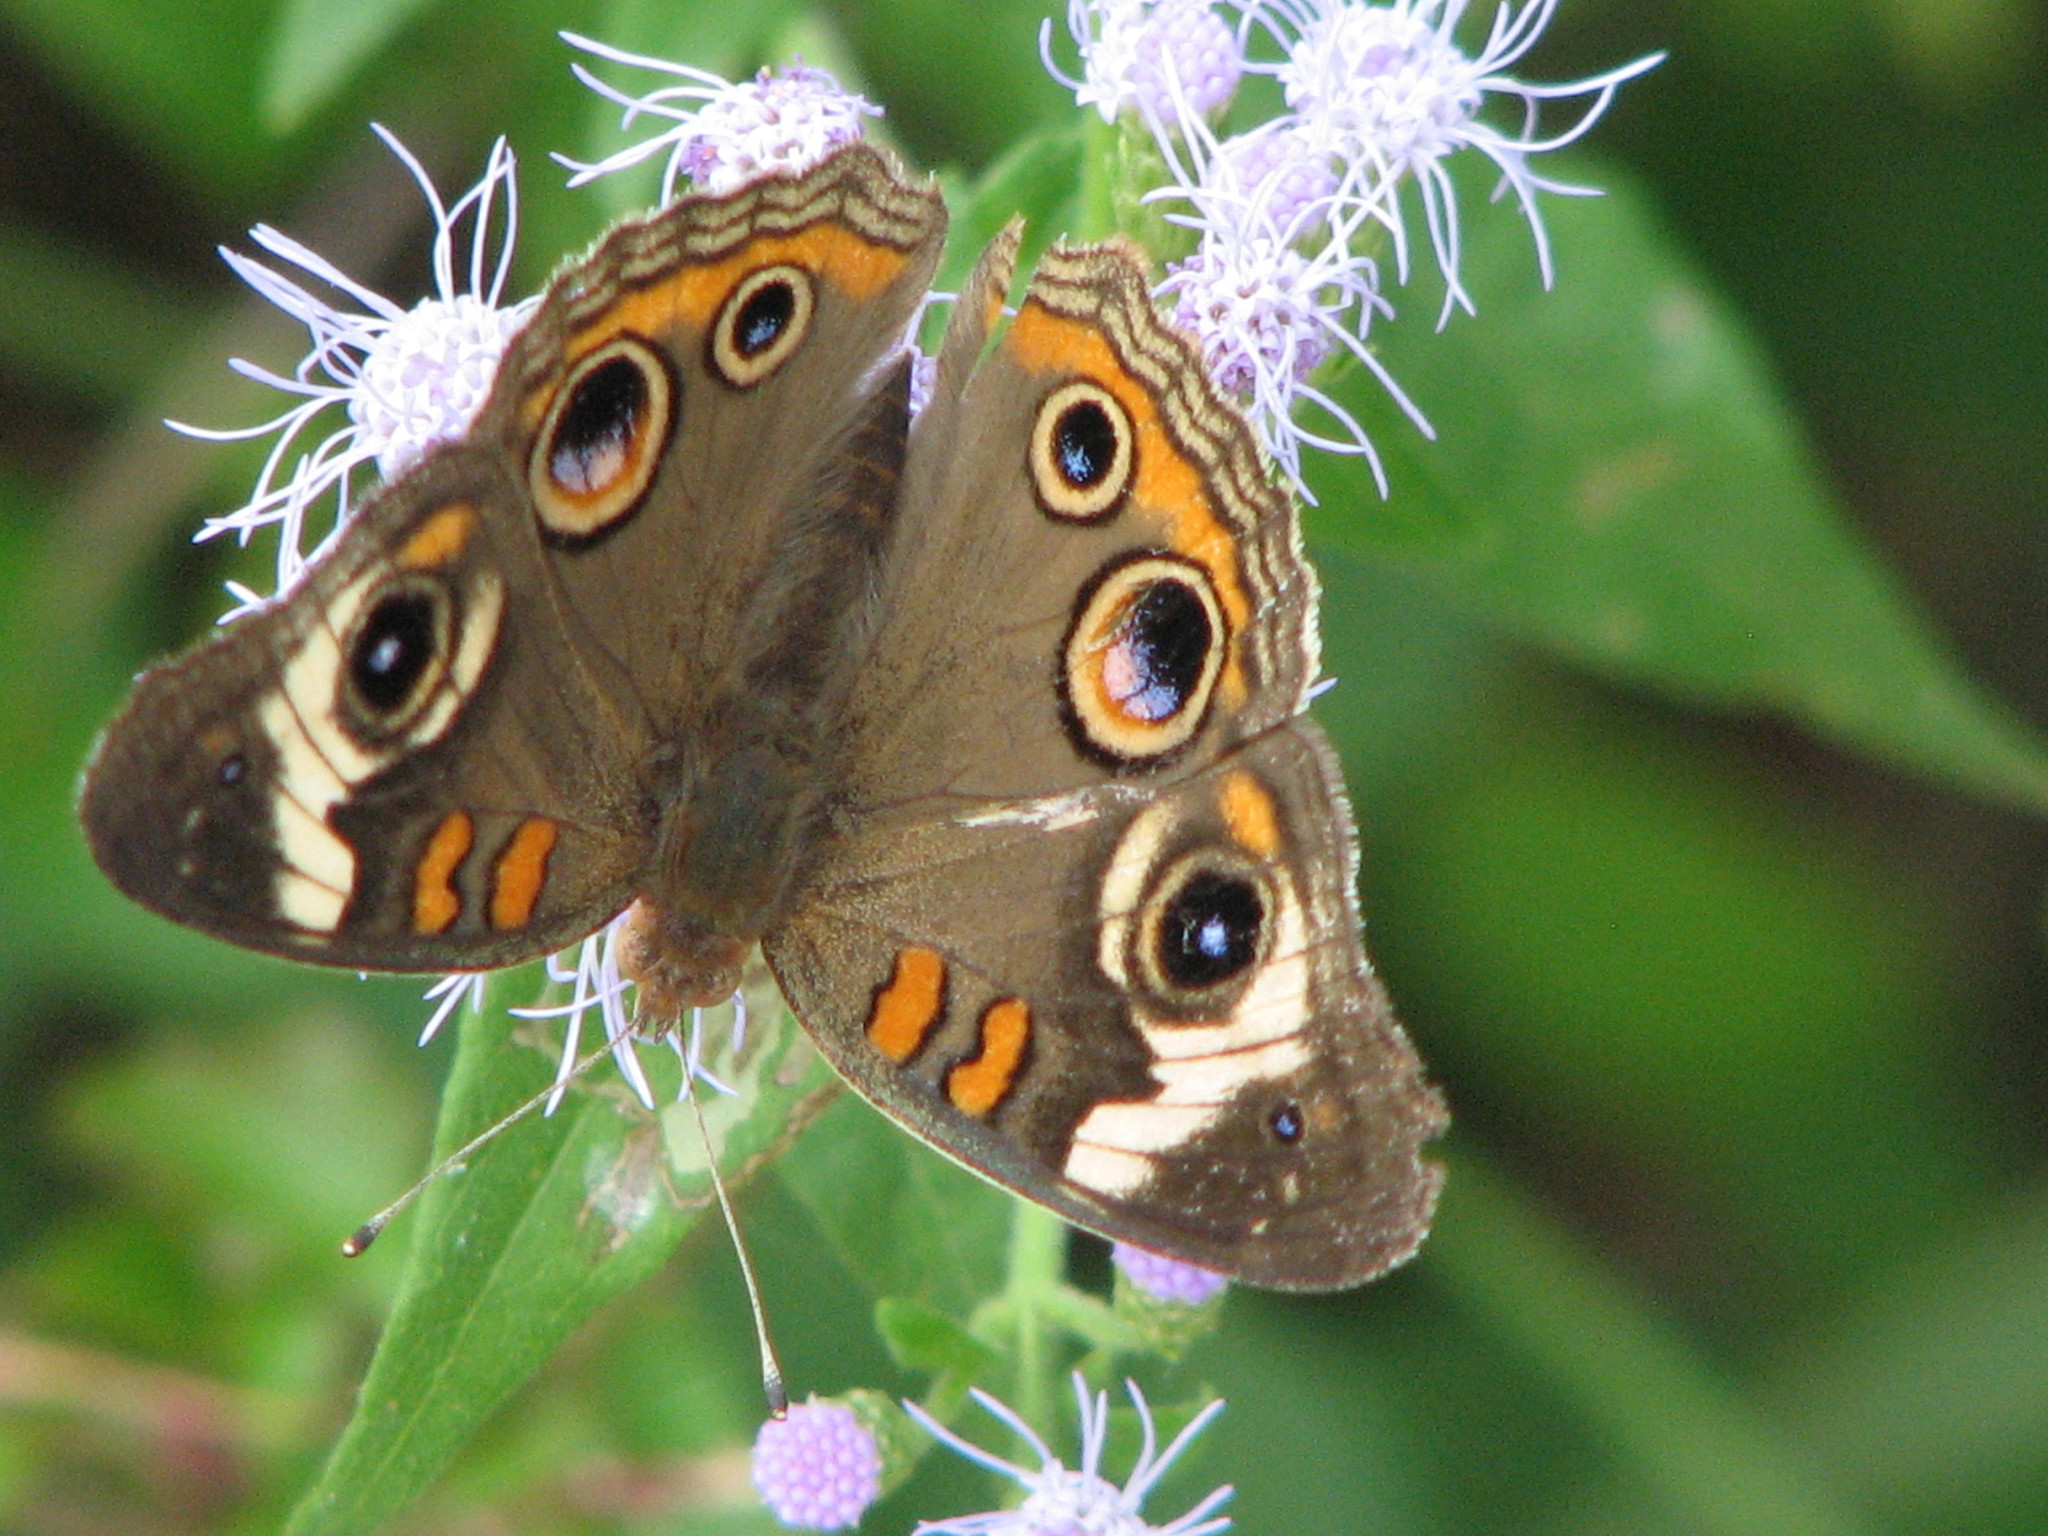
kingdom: Animalia
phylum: Arthropoda
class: Insecta
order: Lepidoptera
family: Nymphalidae
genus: Junonia
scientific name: Junonia coenia
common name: Common buckeye
